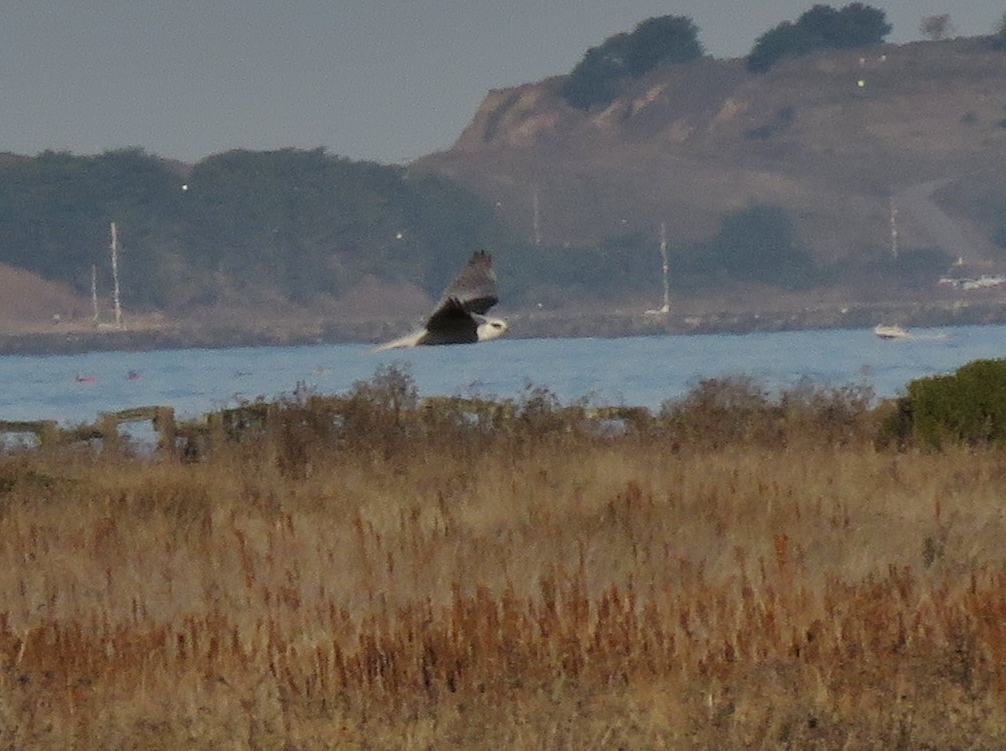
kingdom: Animalia
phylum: Chordata
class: Aves
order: Accipitriformes
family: Accipitridae
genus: Elanus
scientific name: Elanus leucurus
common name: White-tailed kite
